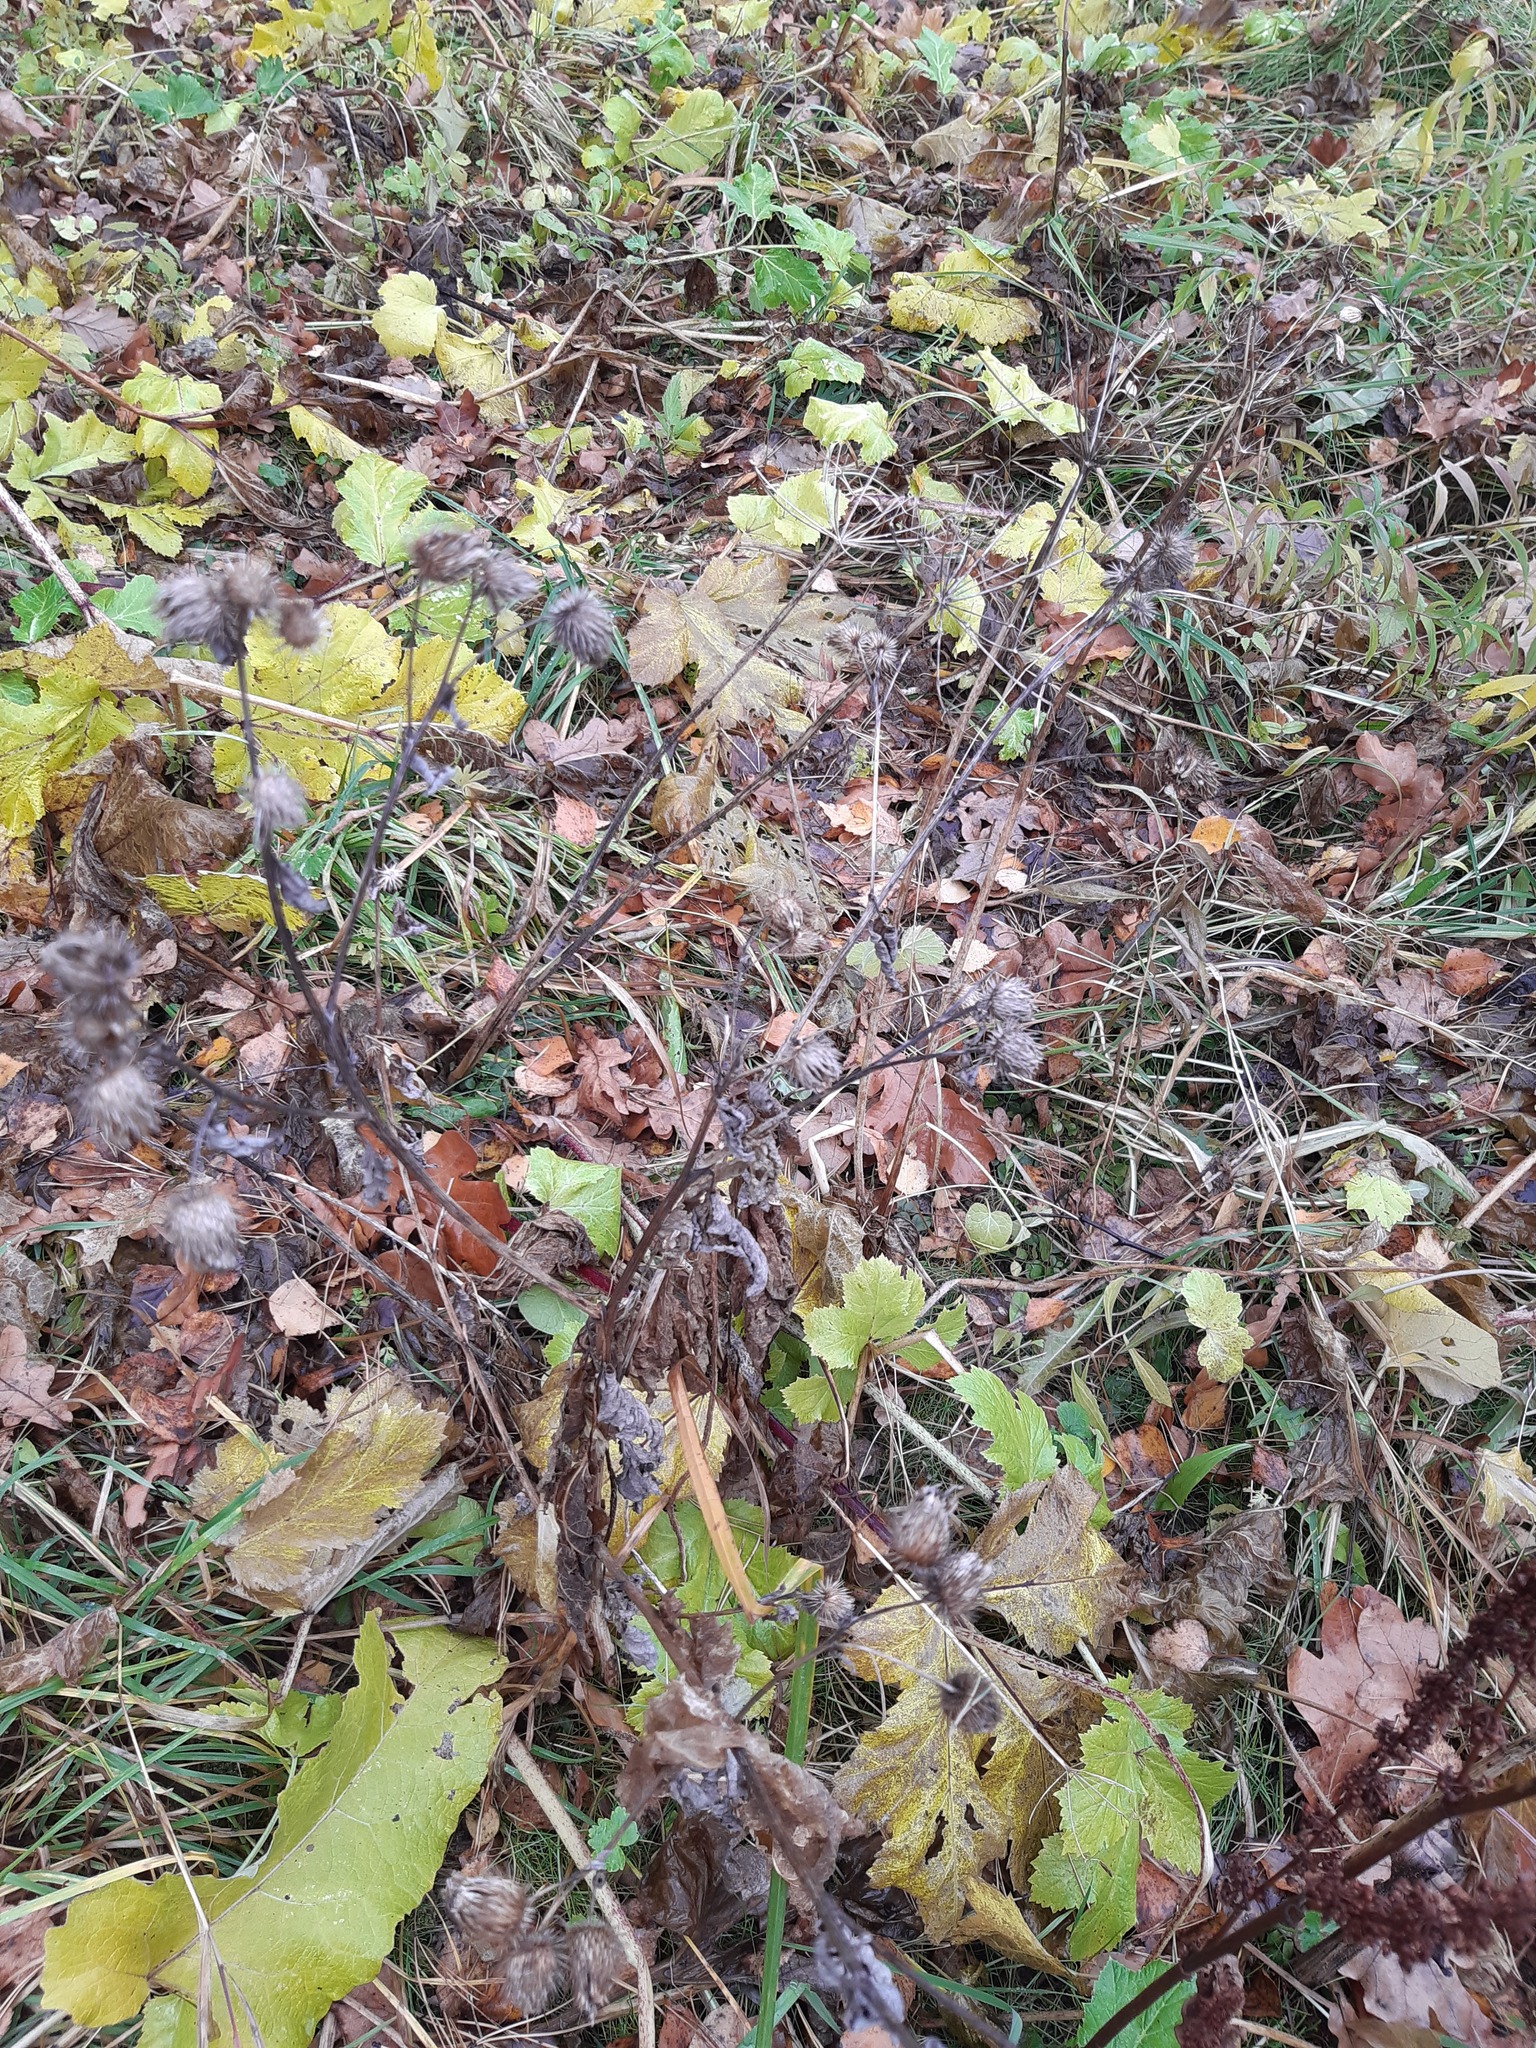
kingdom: Plantae
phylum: Tracheophyta
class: Magnoliopsida
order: Asterales
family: Asteraceae
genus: Arctium
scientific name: Arctium tomentosum
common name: Woolly burdock
